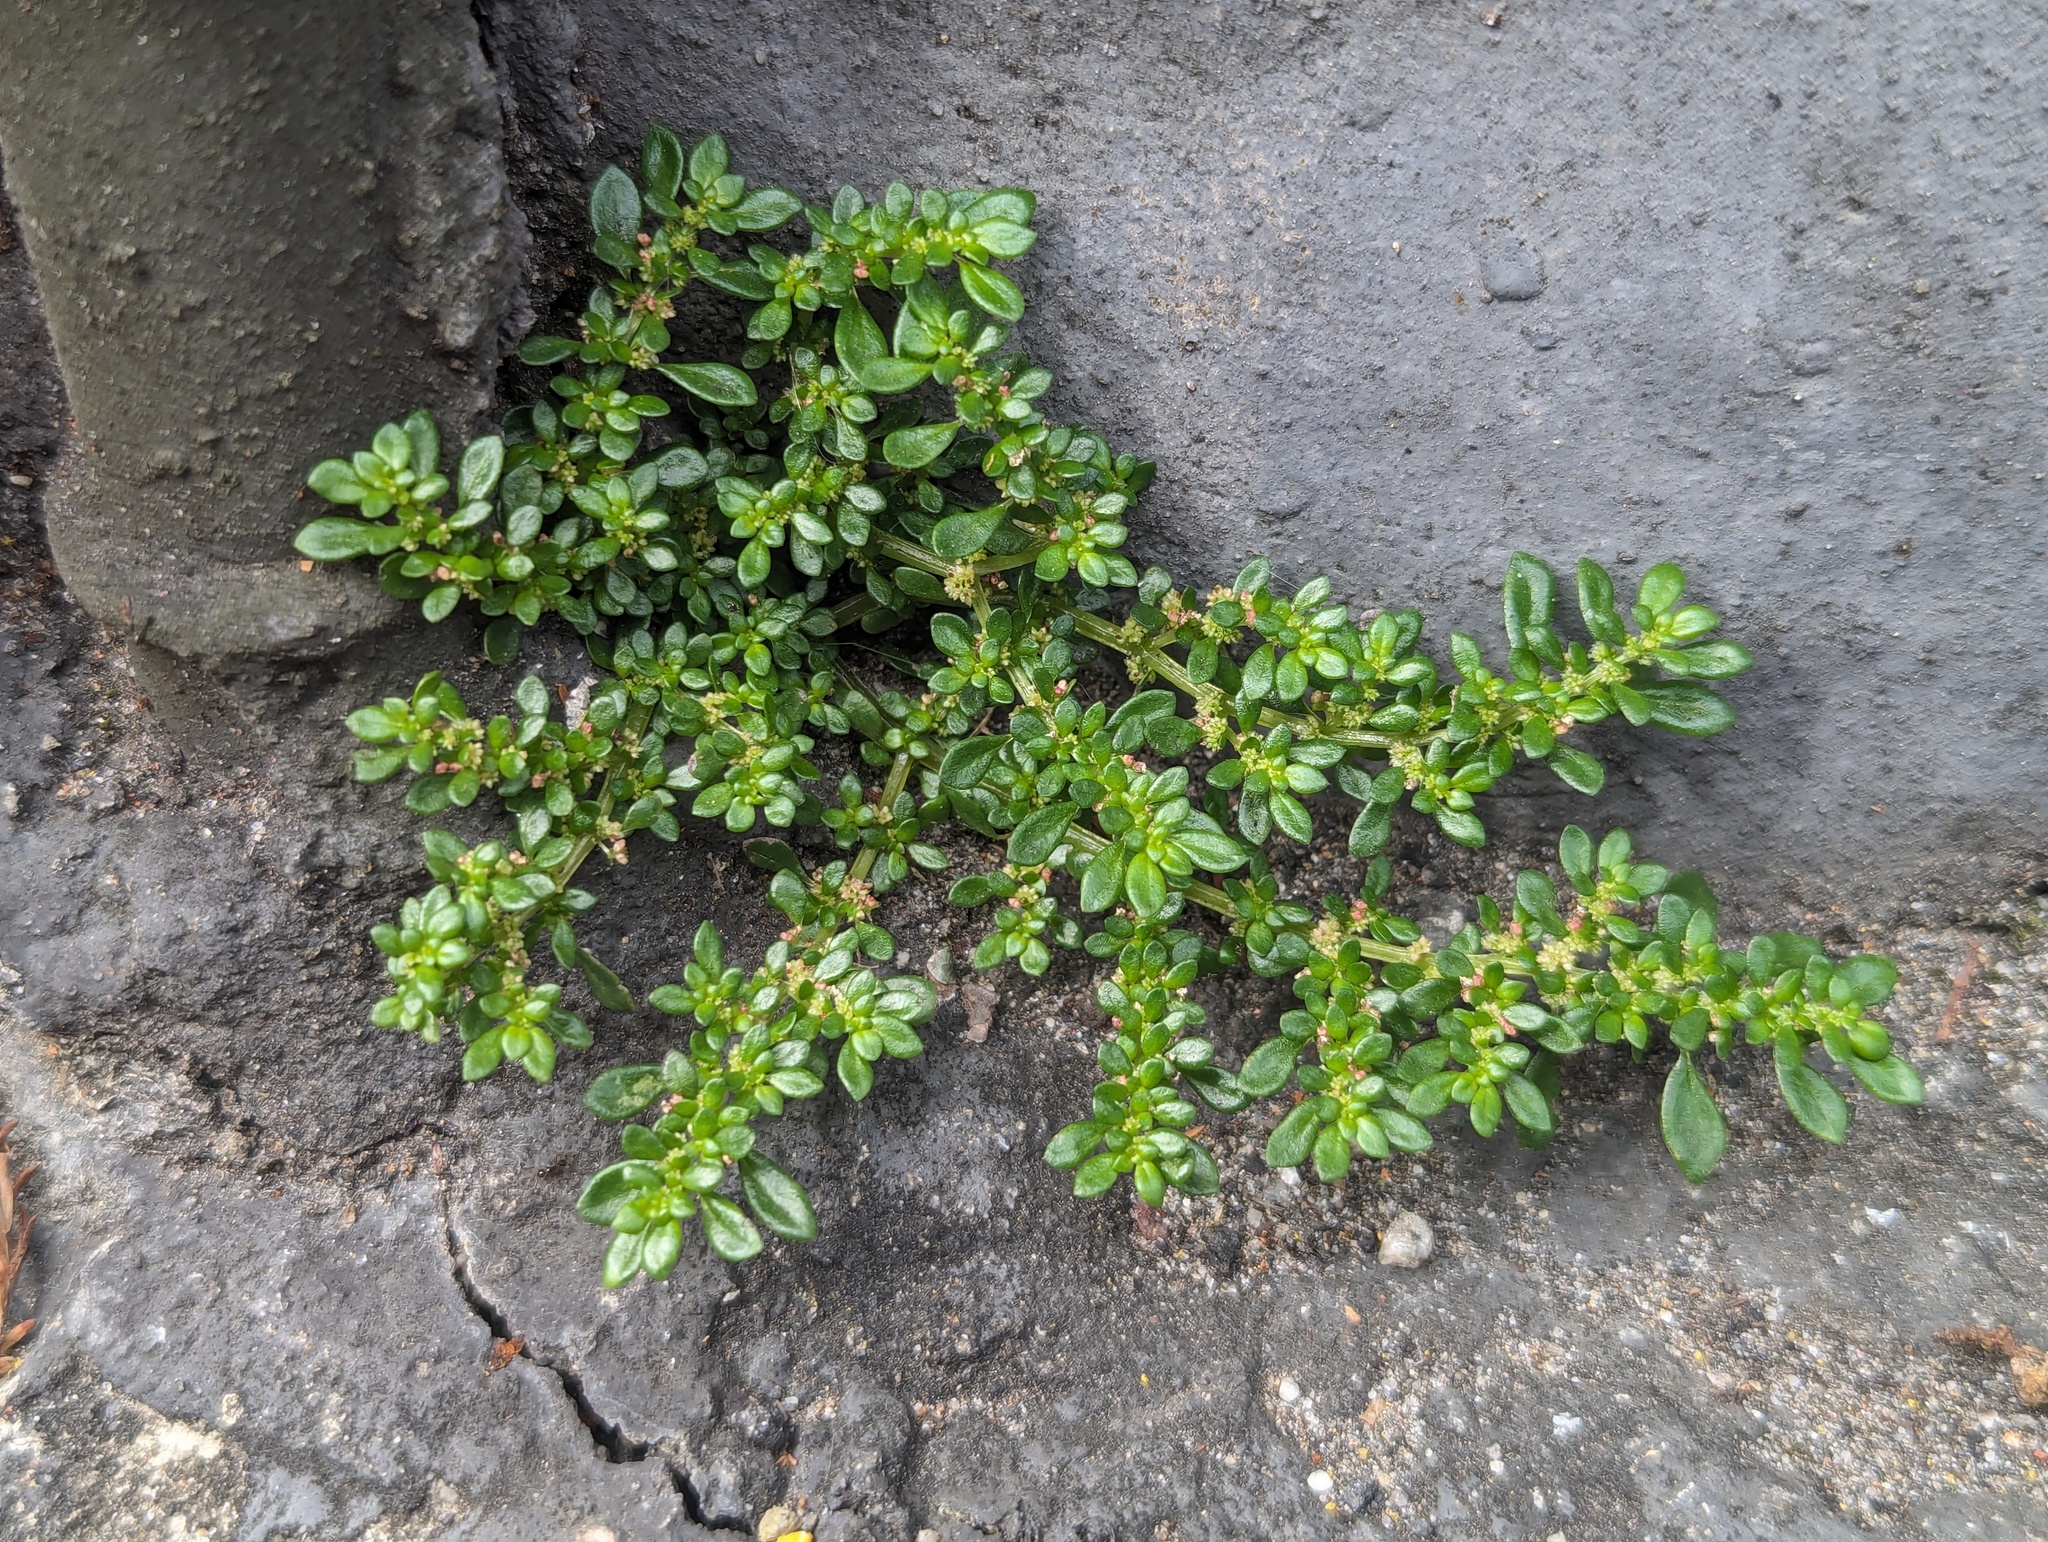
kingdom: Plantae
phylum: Tracheophyta
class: Magnoliopsida
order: Rosales
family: Urticaceae
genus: Pilea
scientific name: Pilea microphylla
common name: Artillery-plant
